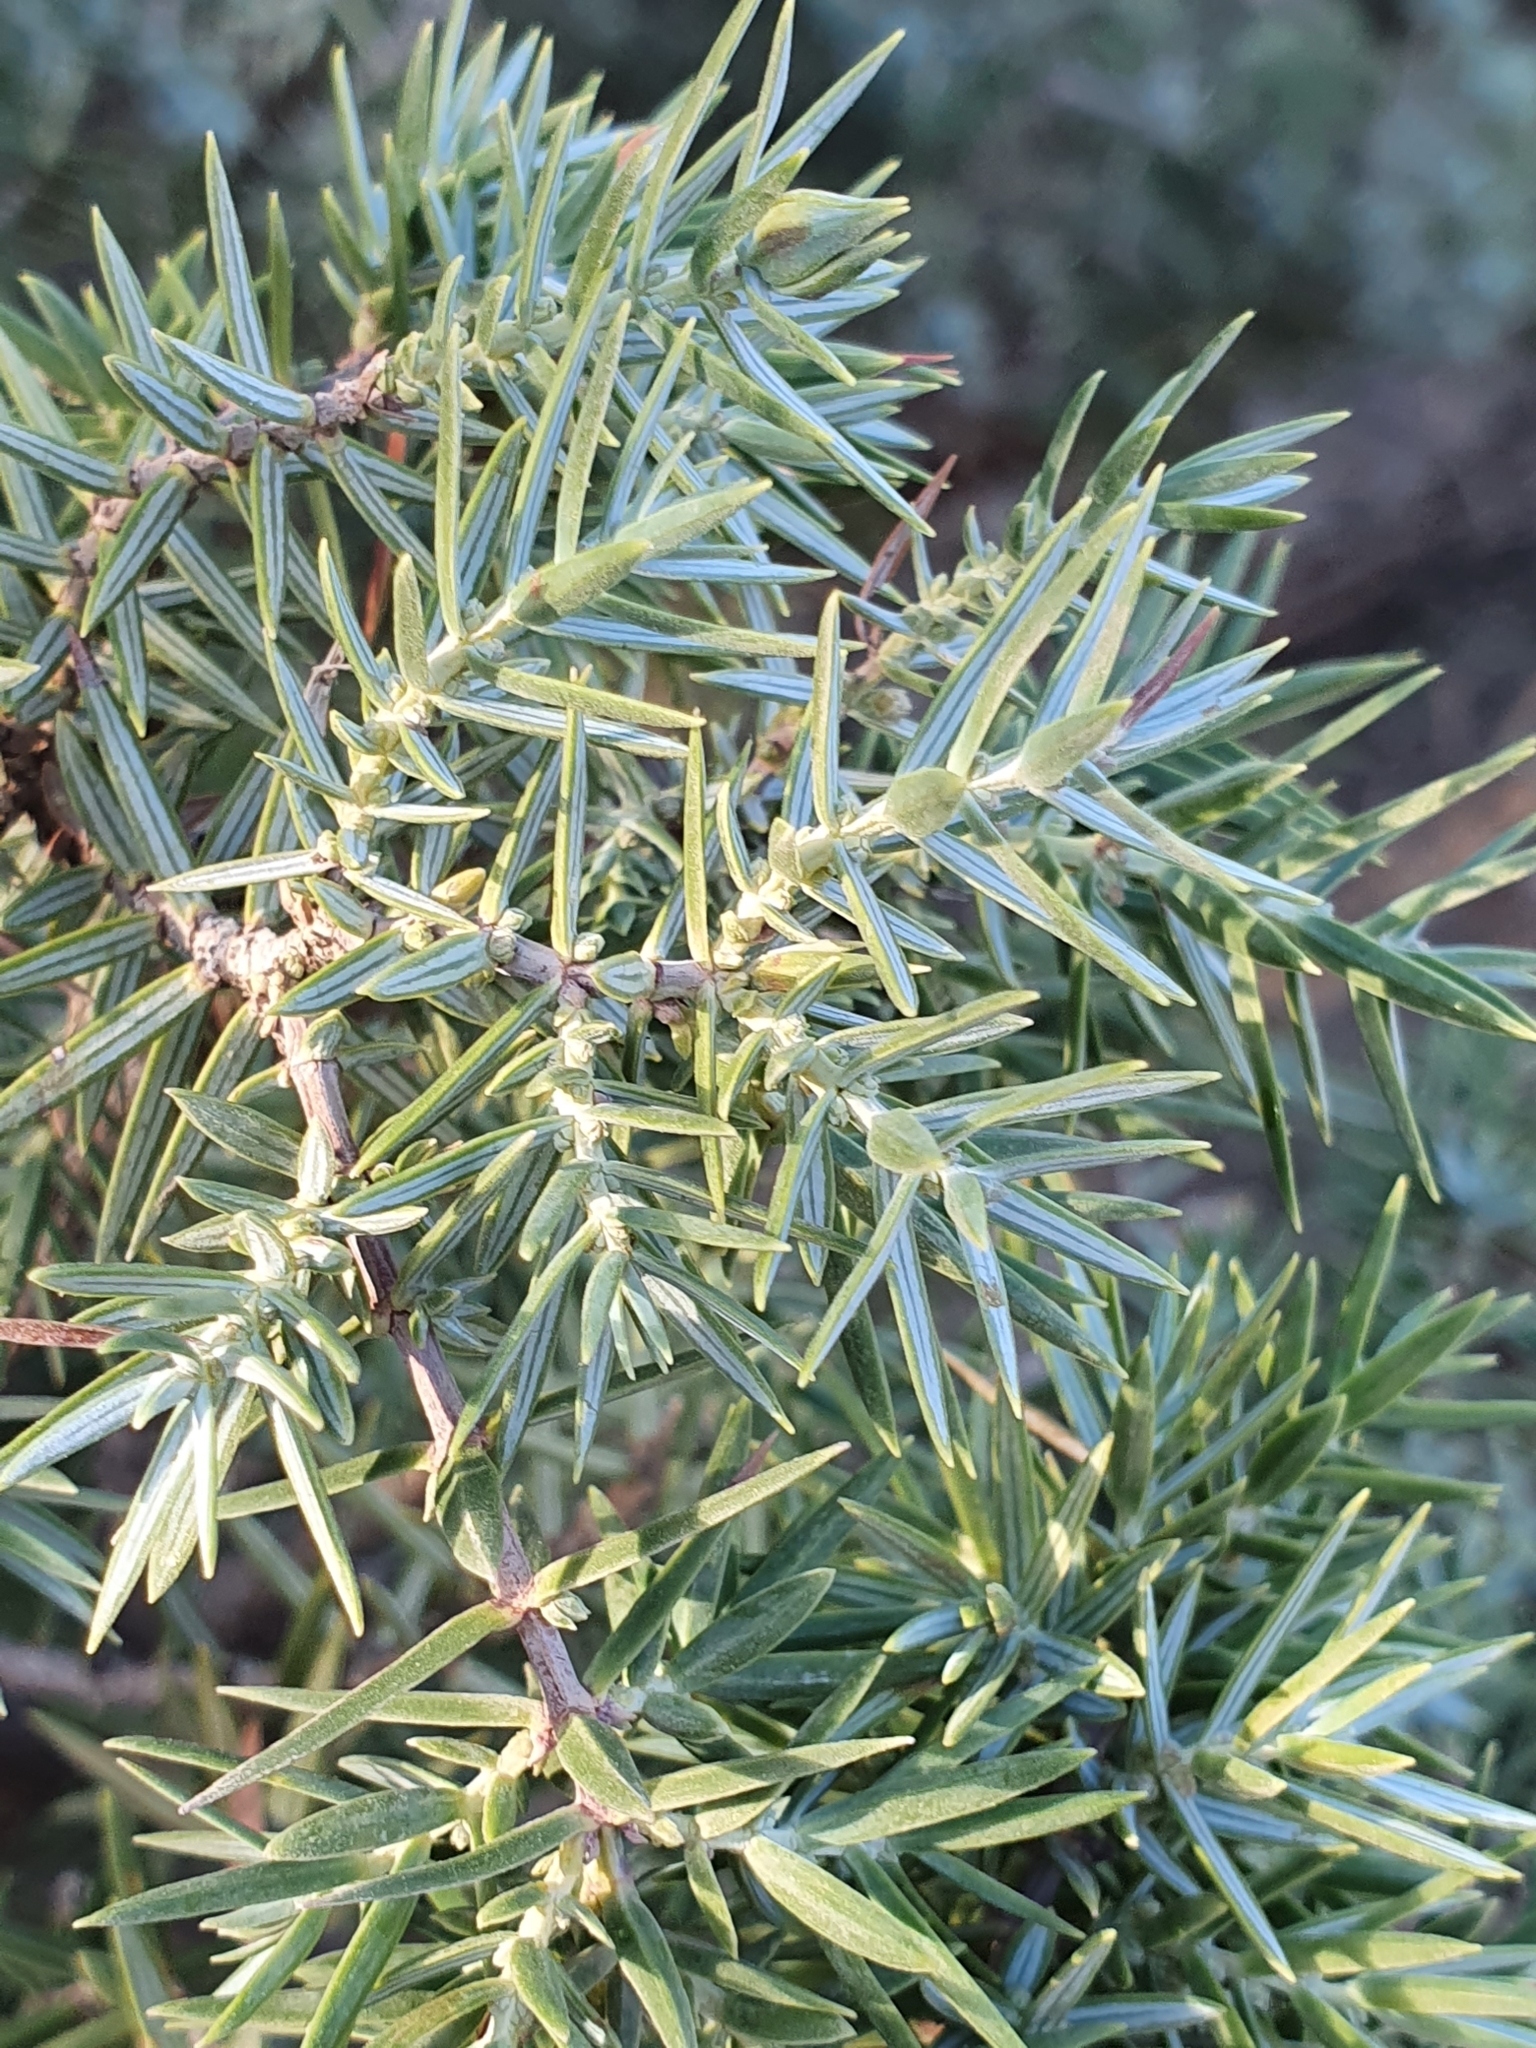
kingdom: Plantae
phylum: Tracheophyta
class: Pinopsida
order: Pinales
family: Cupressaceae
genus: Juniperus
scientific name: Juniperus oxycedrus
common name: Prickly juniper
